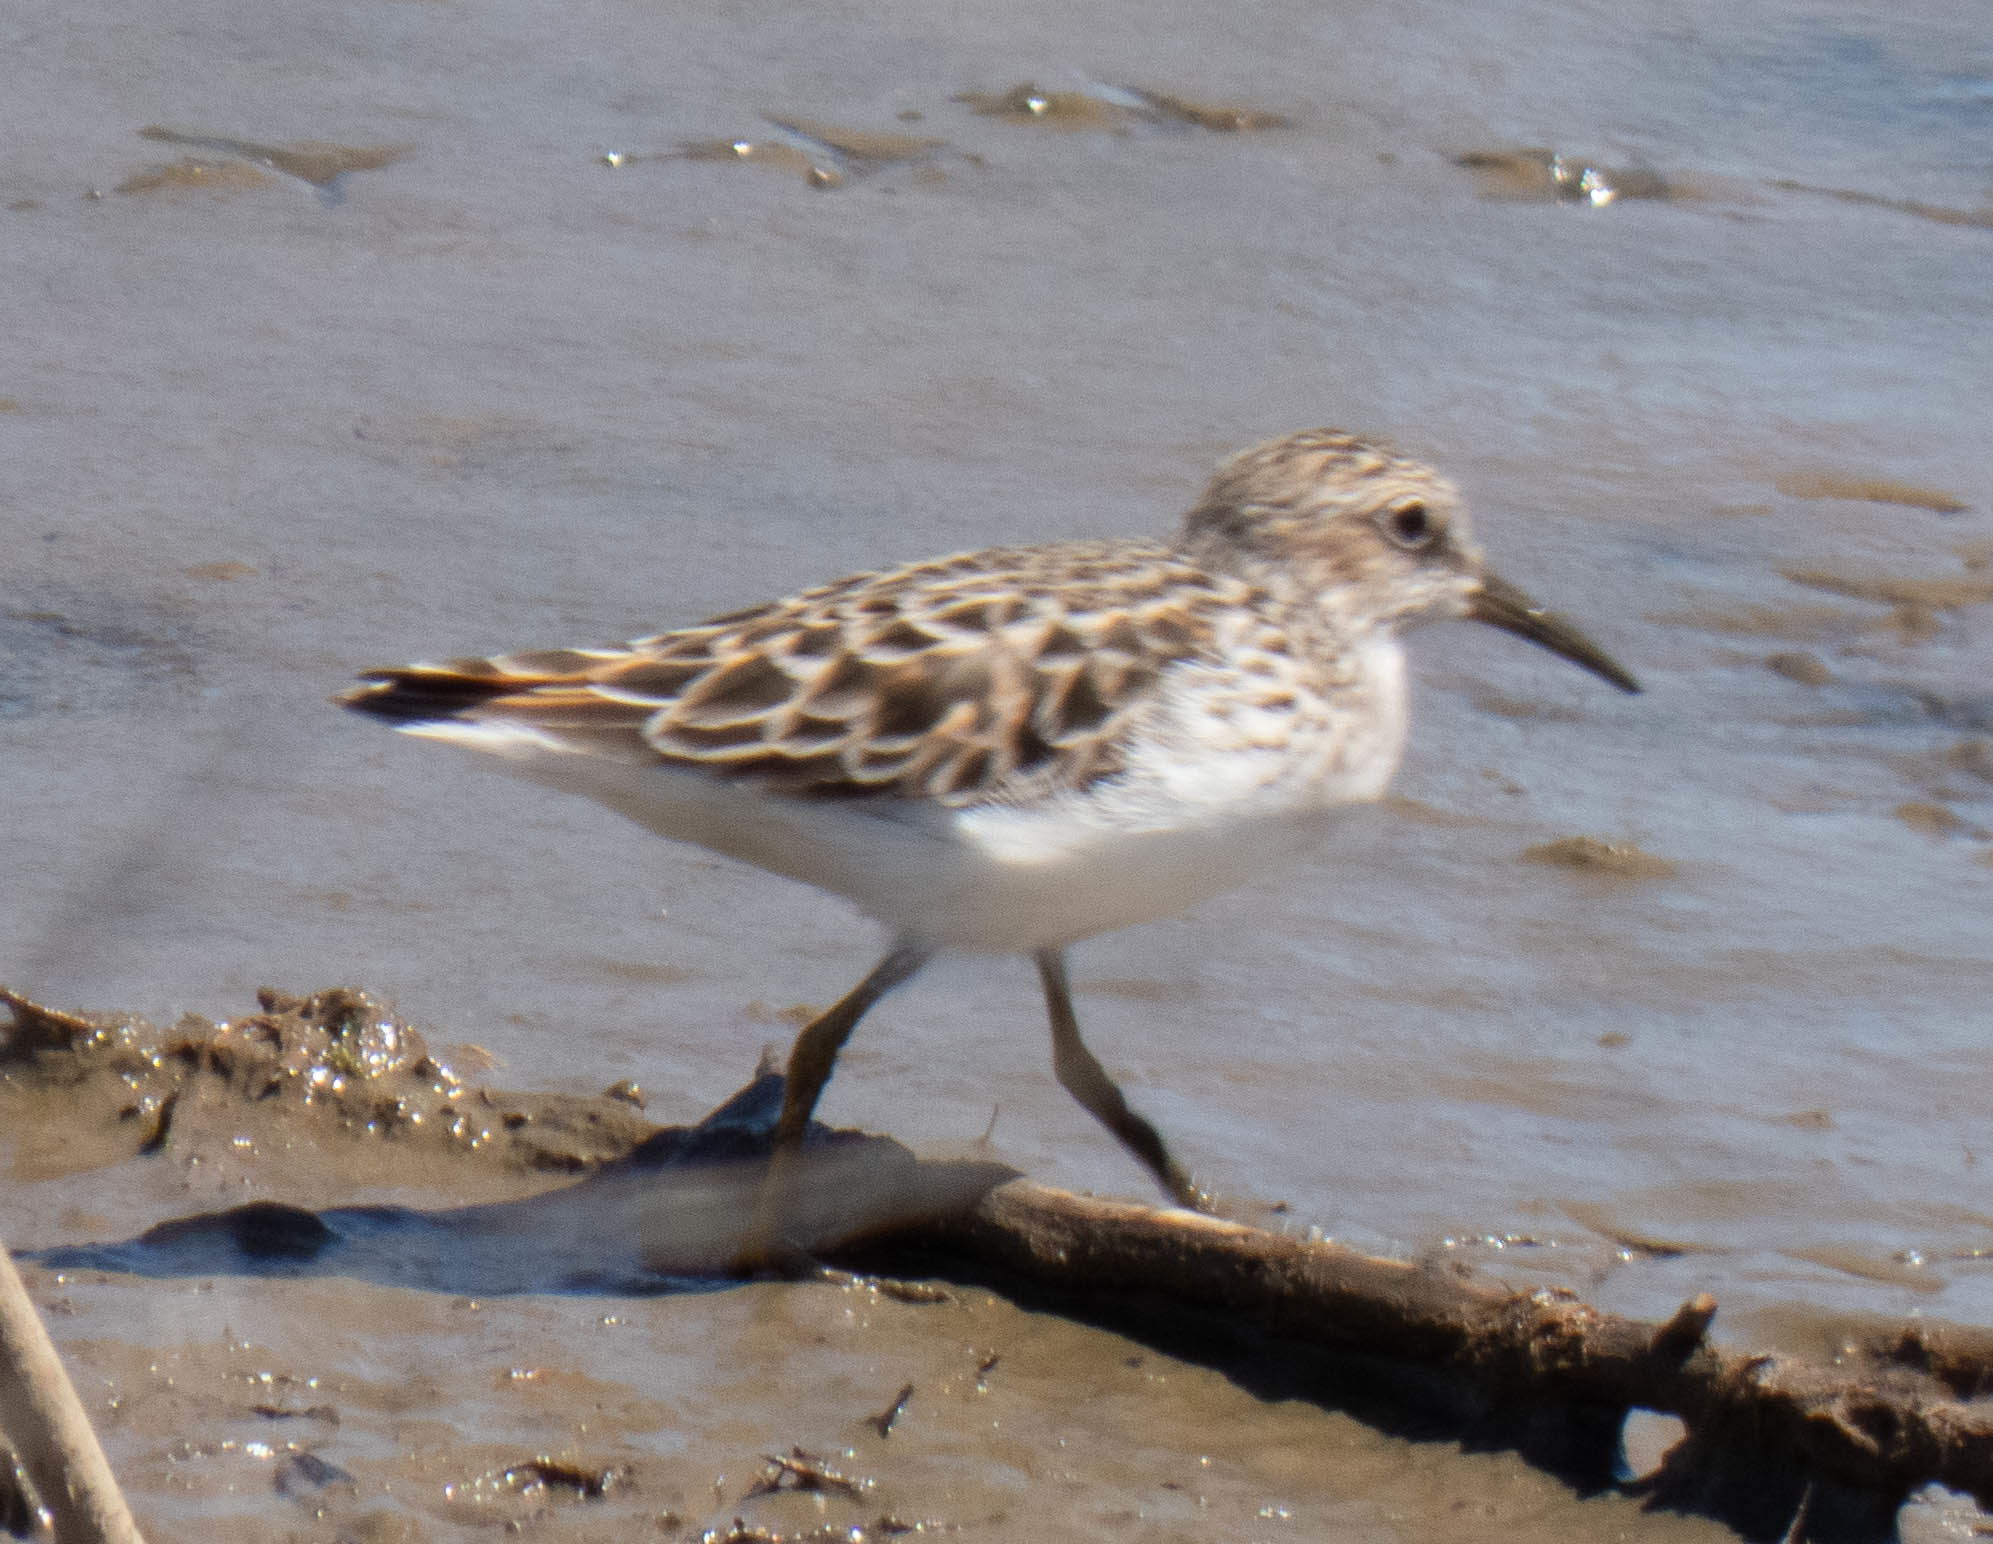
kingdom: Animalia
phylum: Chordata
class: Aves
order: Charadriiformes
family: Scolopacidae
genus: Calidris
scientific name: Calidris minutilla
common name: Least sandpiper
